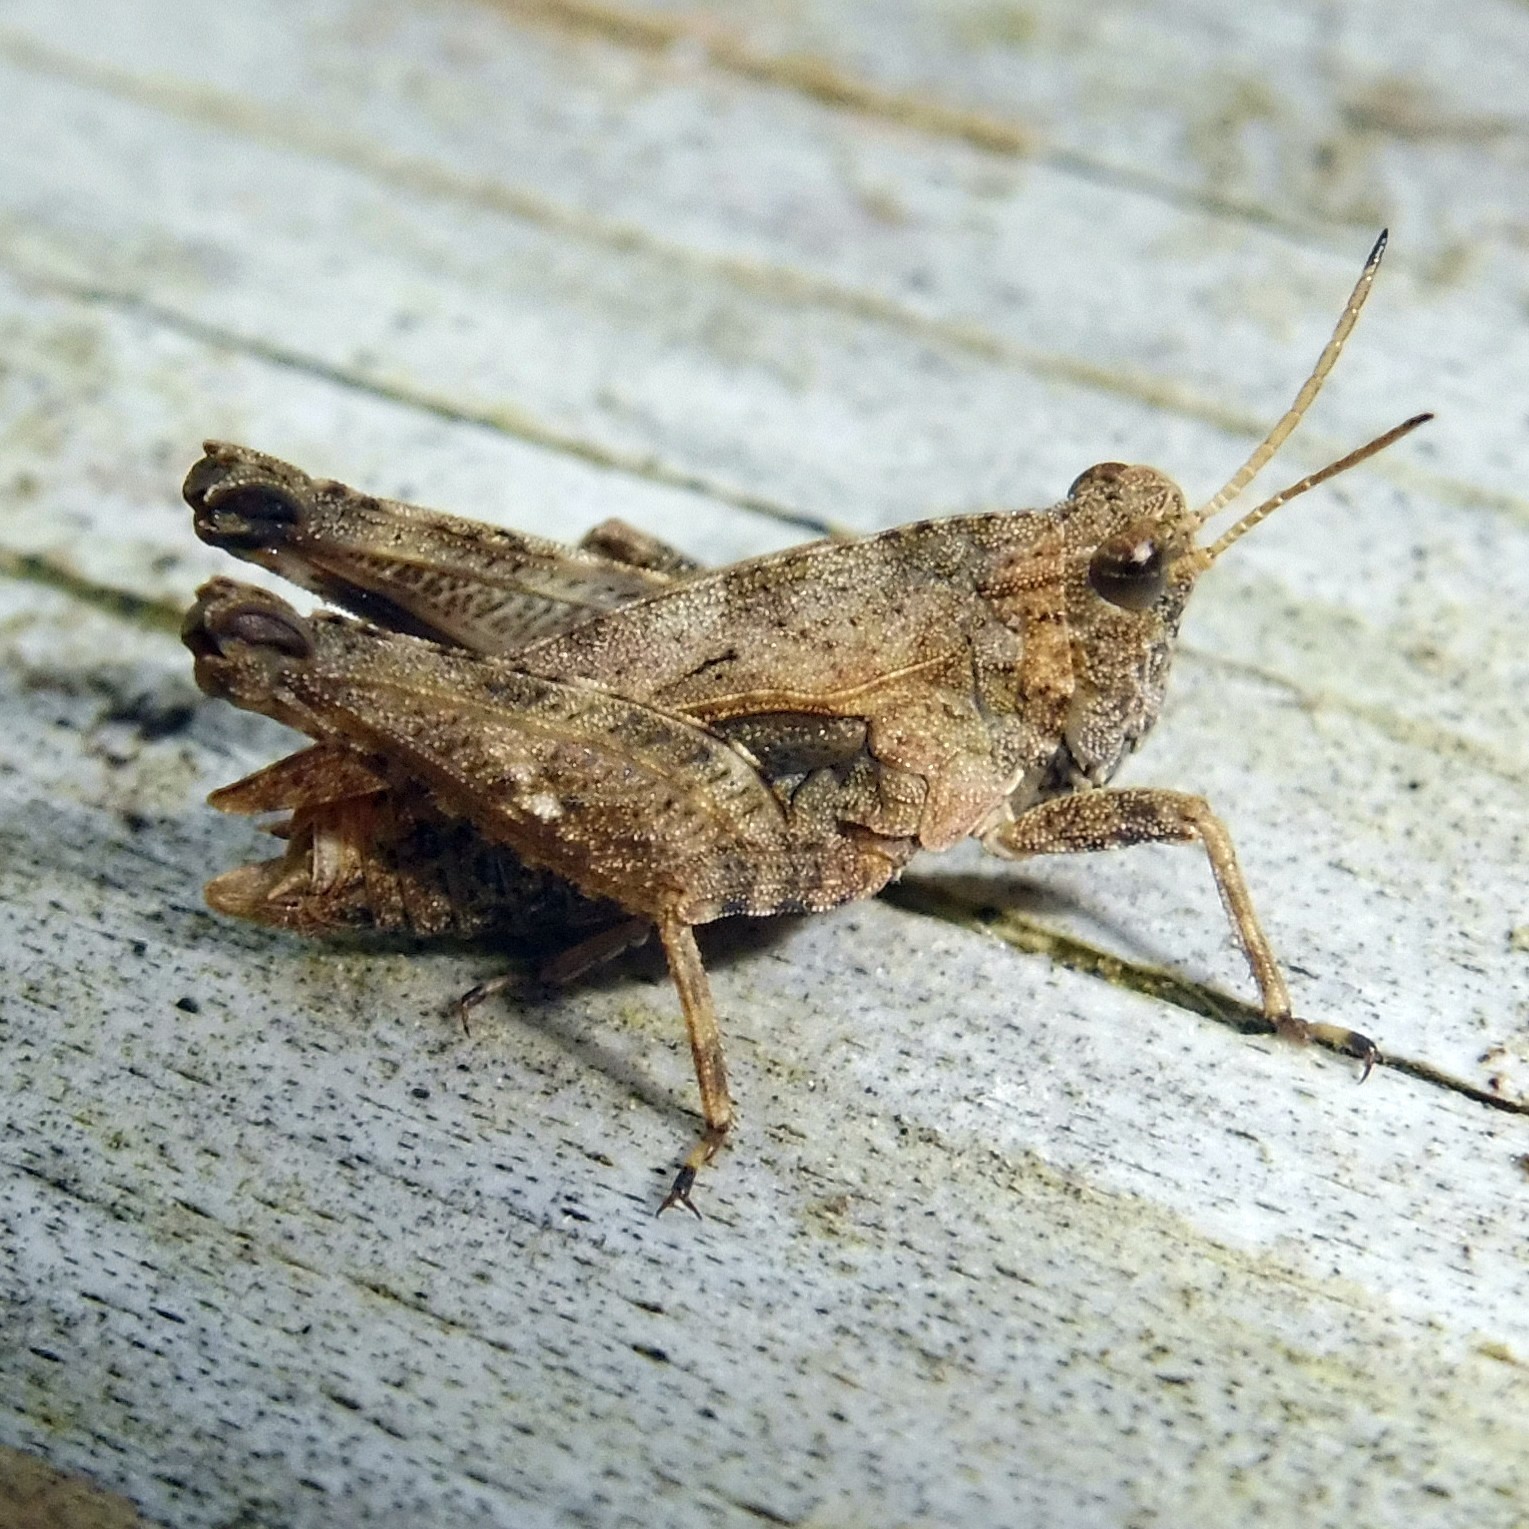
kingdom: Animalia
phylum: Arthropoda
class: Insecta
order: Orthoptera
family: Tetrigidae
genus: Tetrix
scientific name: Tetrix undulata
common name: Common groundhopper
